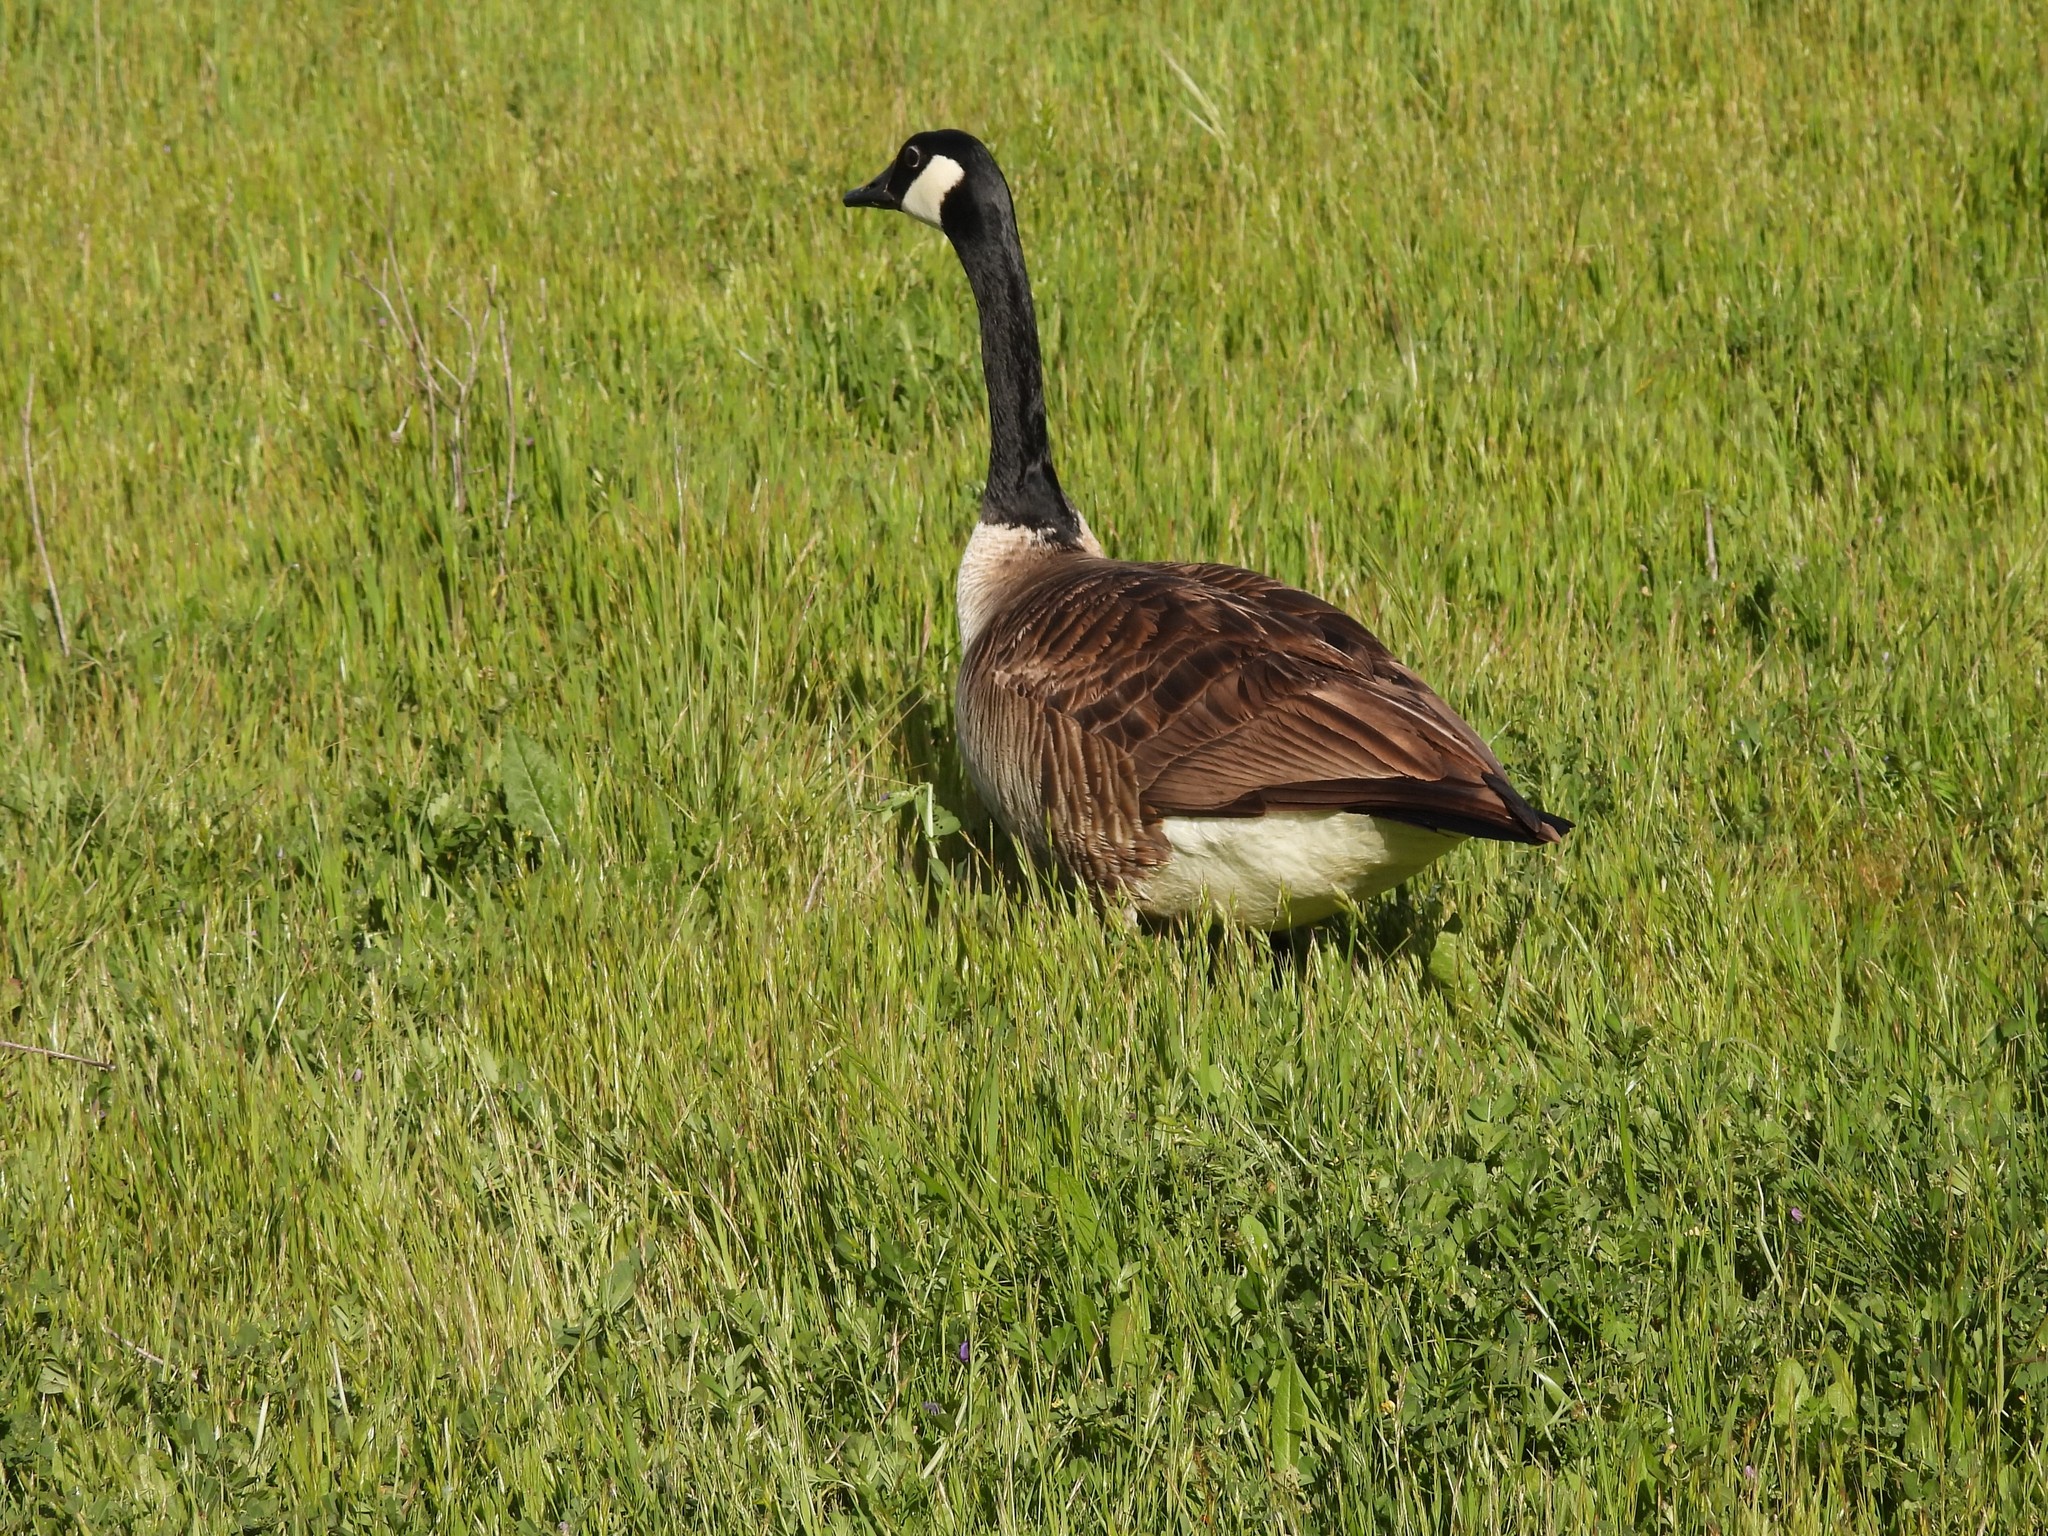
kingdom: Animalia
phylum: Chordata
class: Aves
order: Anseriformes
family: Anatidae
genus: Branta
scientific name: Branta canadensis
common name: Canada goose
